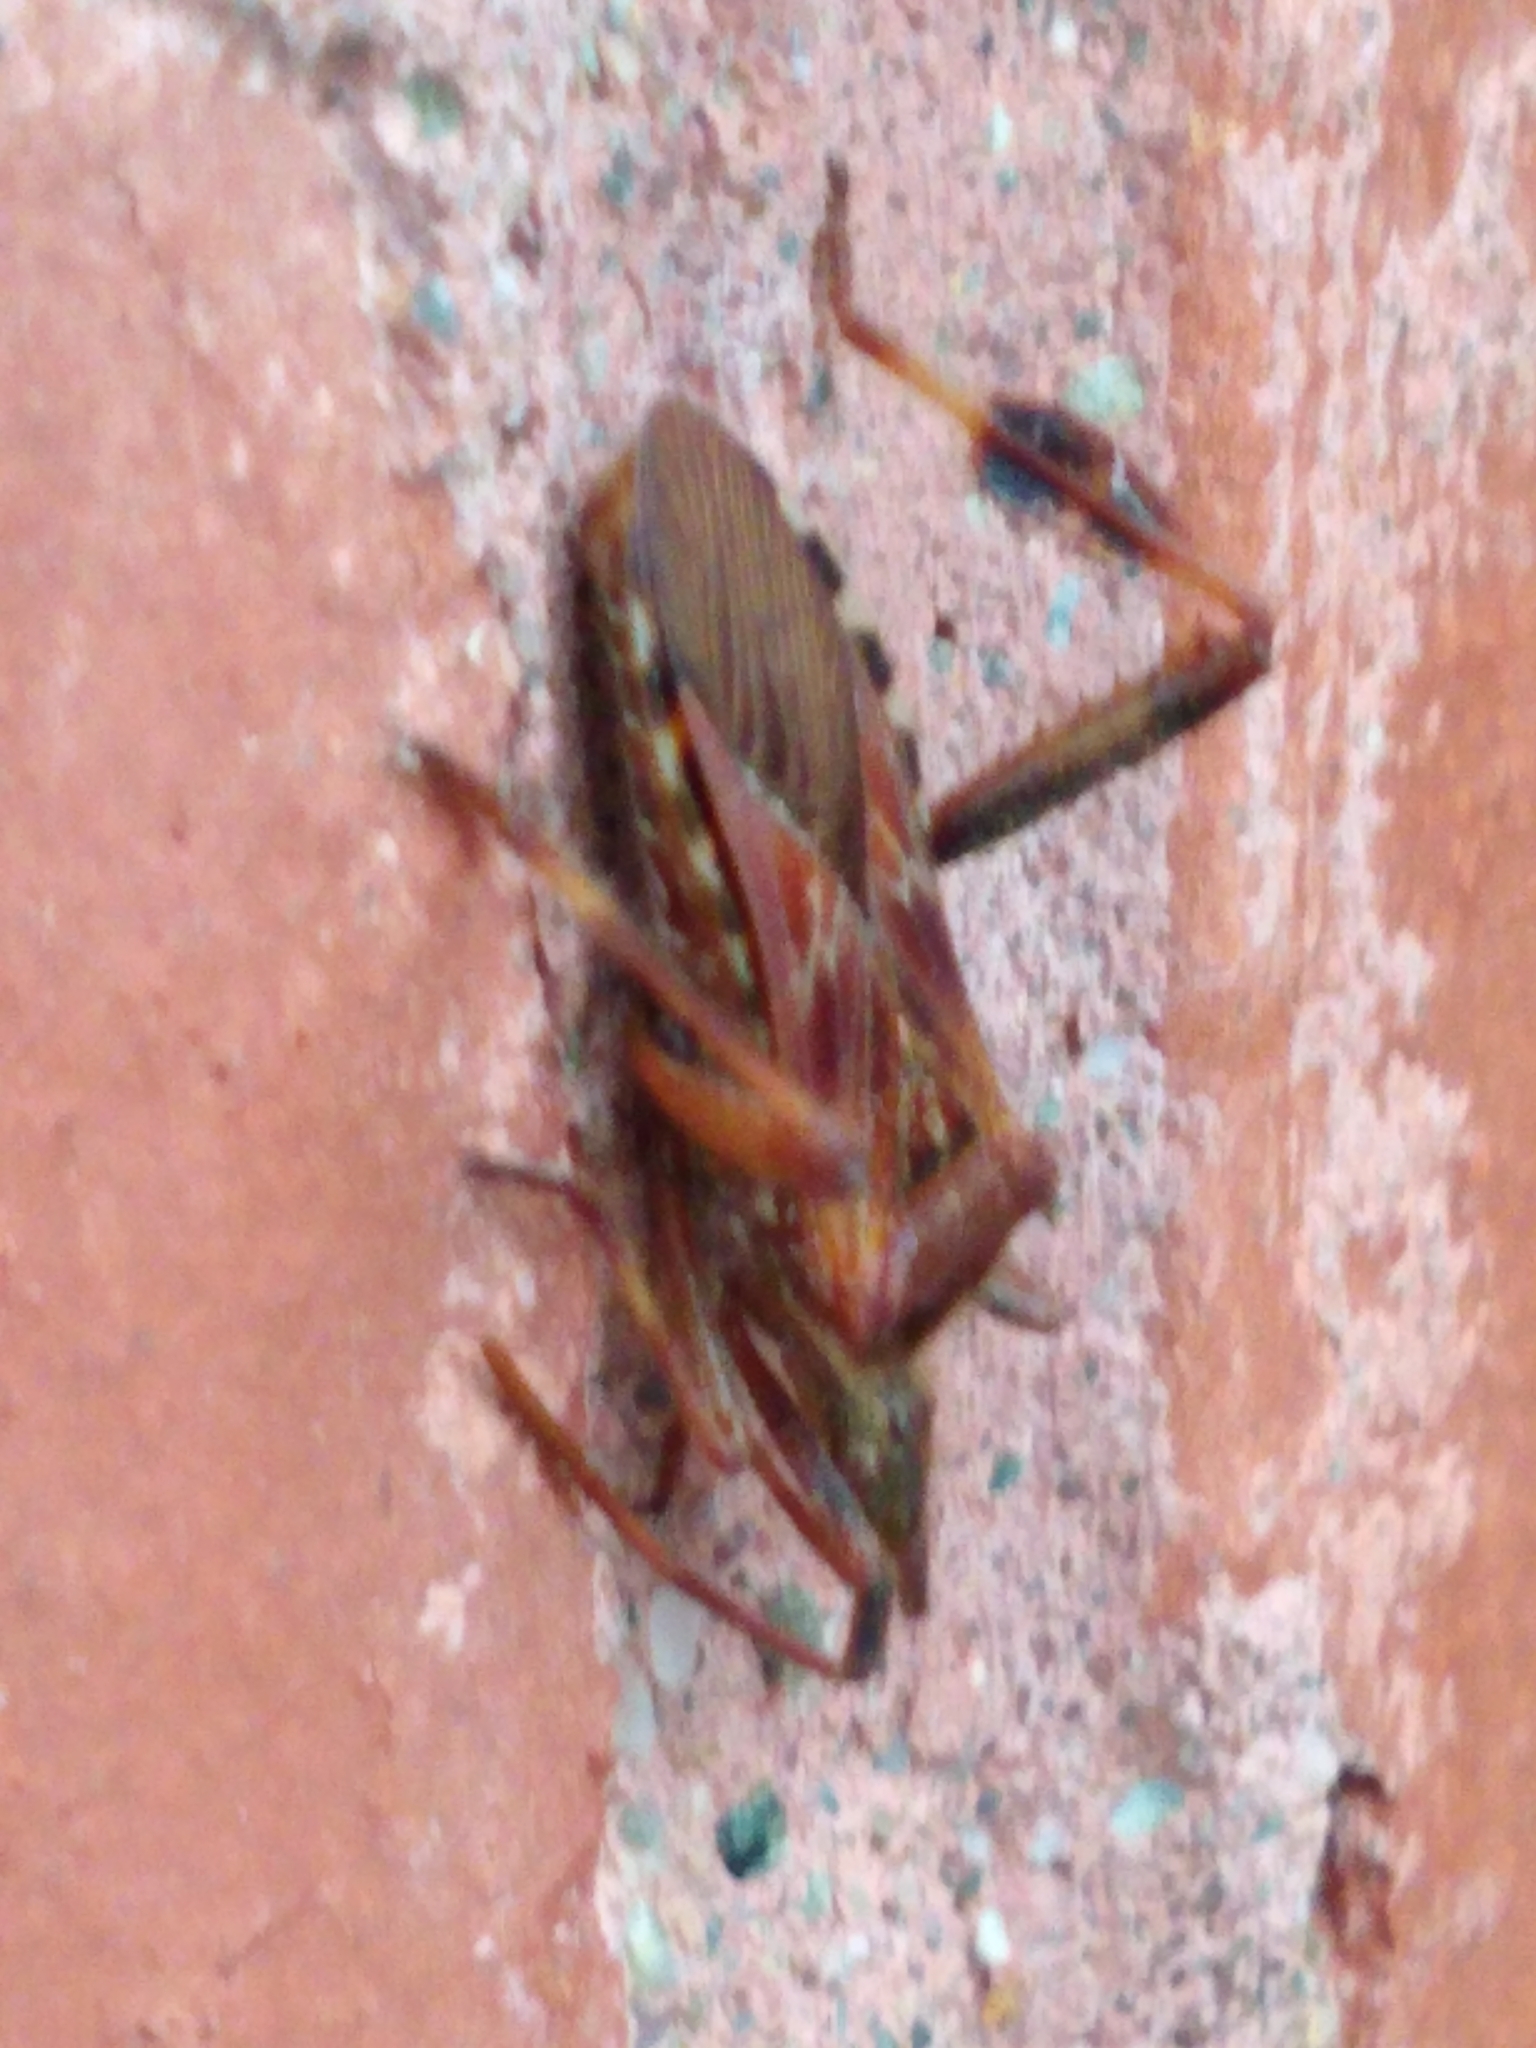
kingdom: Animalia
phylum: Arthropoda
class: Insecta
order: Hemiptera
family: Coreidae
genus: Leptoglossus
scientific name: Leptoglossus occidentalis
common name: Western conifer-seed bug
